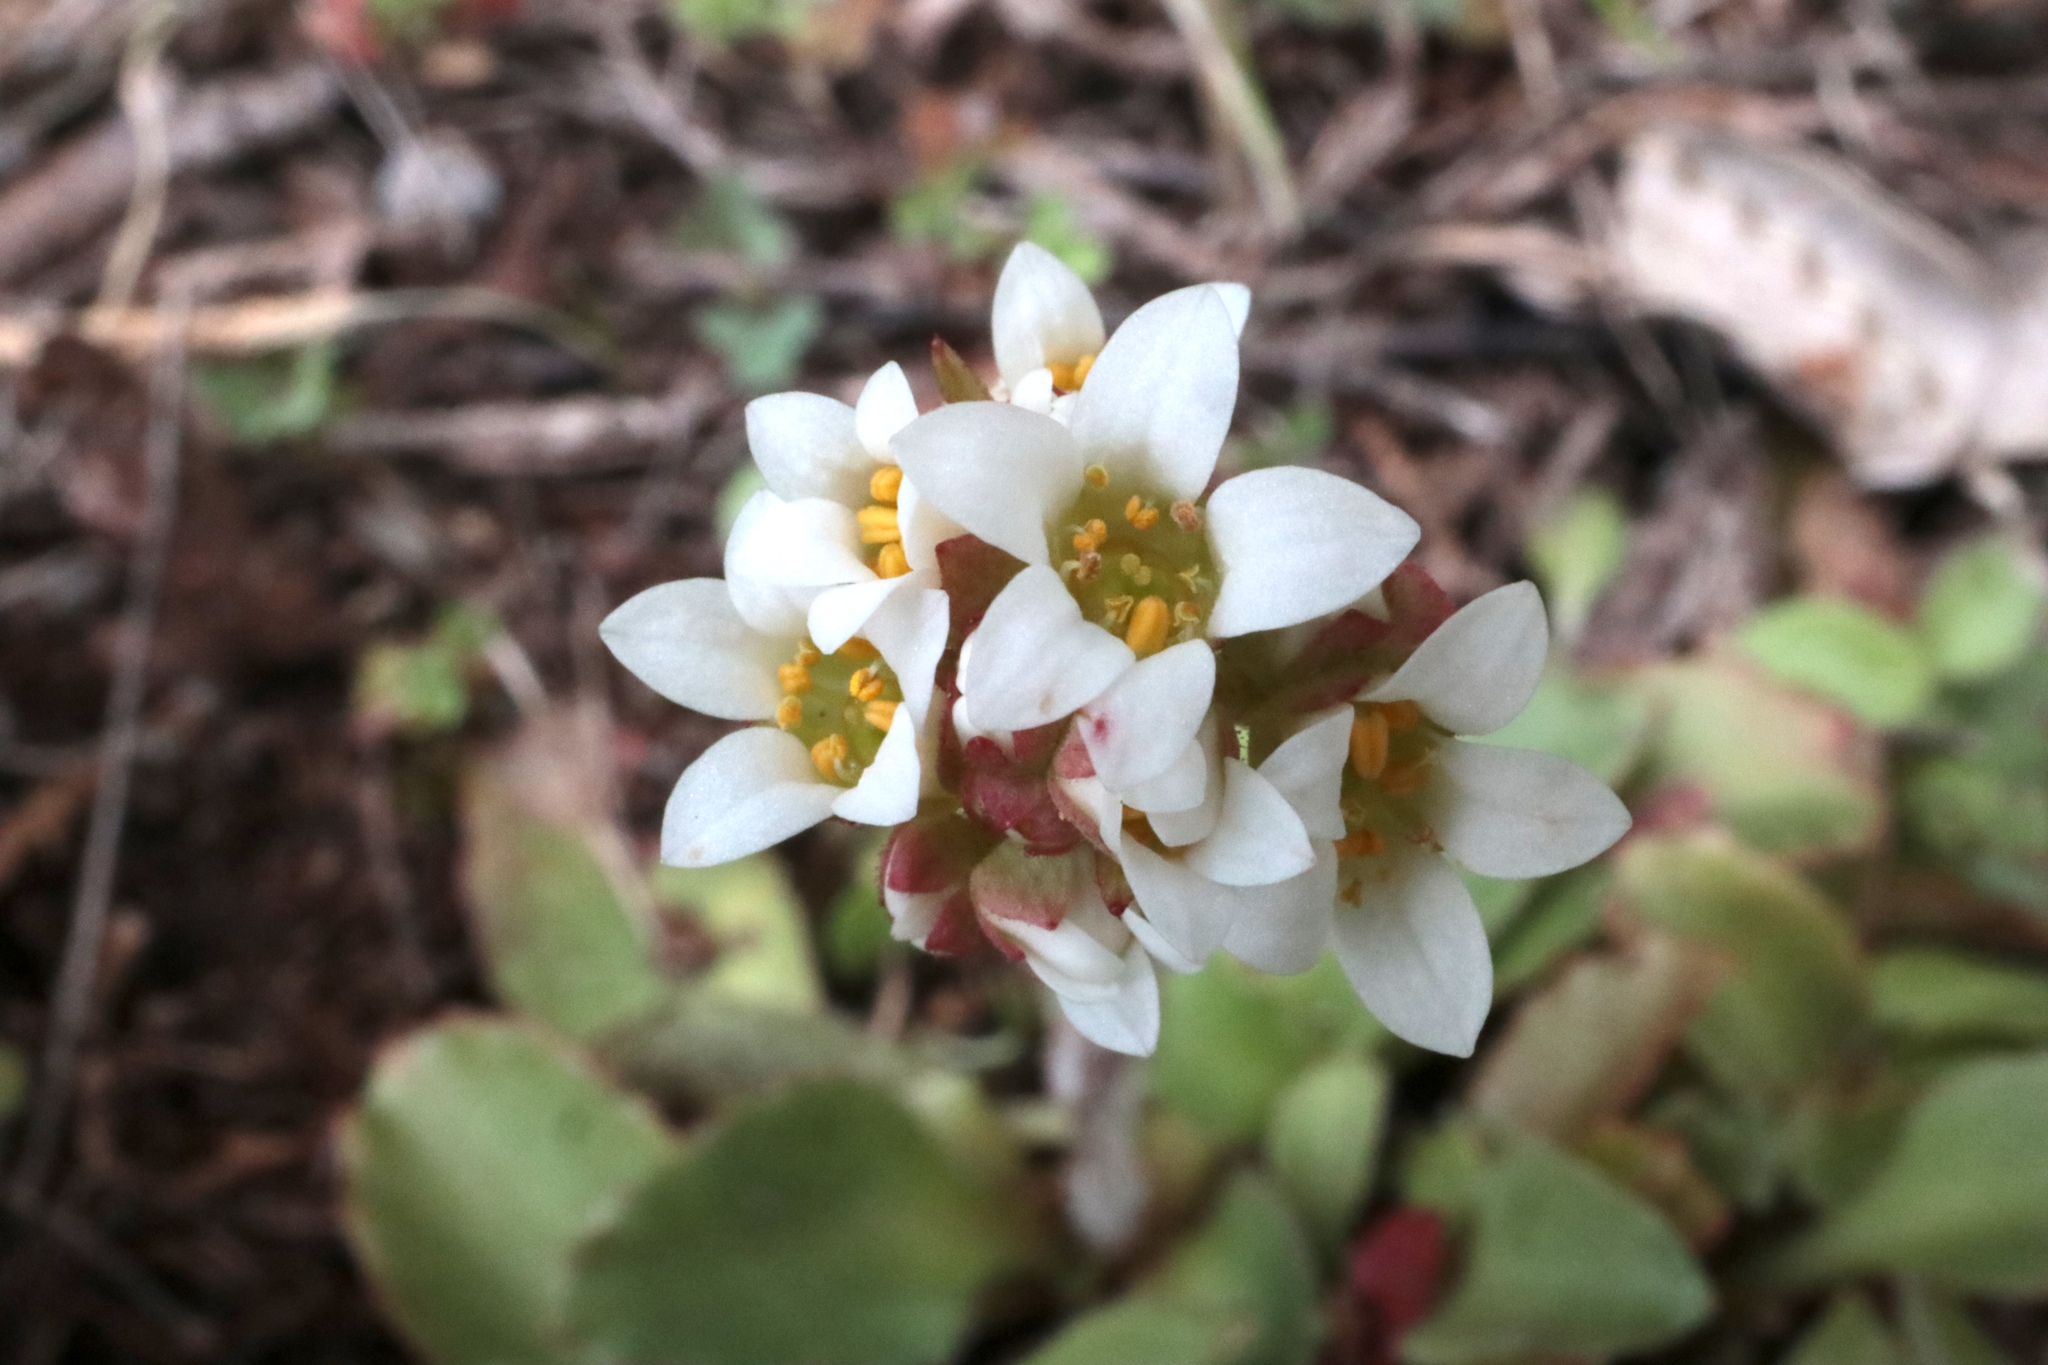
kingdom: Plantae
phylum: Tracheophyta
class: Magnoliopsida
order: Saxifragales
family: Saxifragaceae
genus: Micranthes
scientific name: Micranthes virginiensis
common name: Early saxifrage
